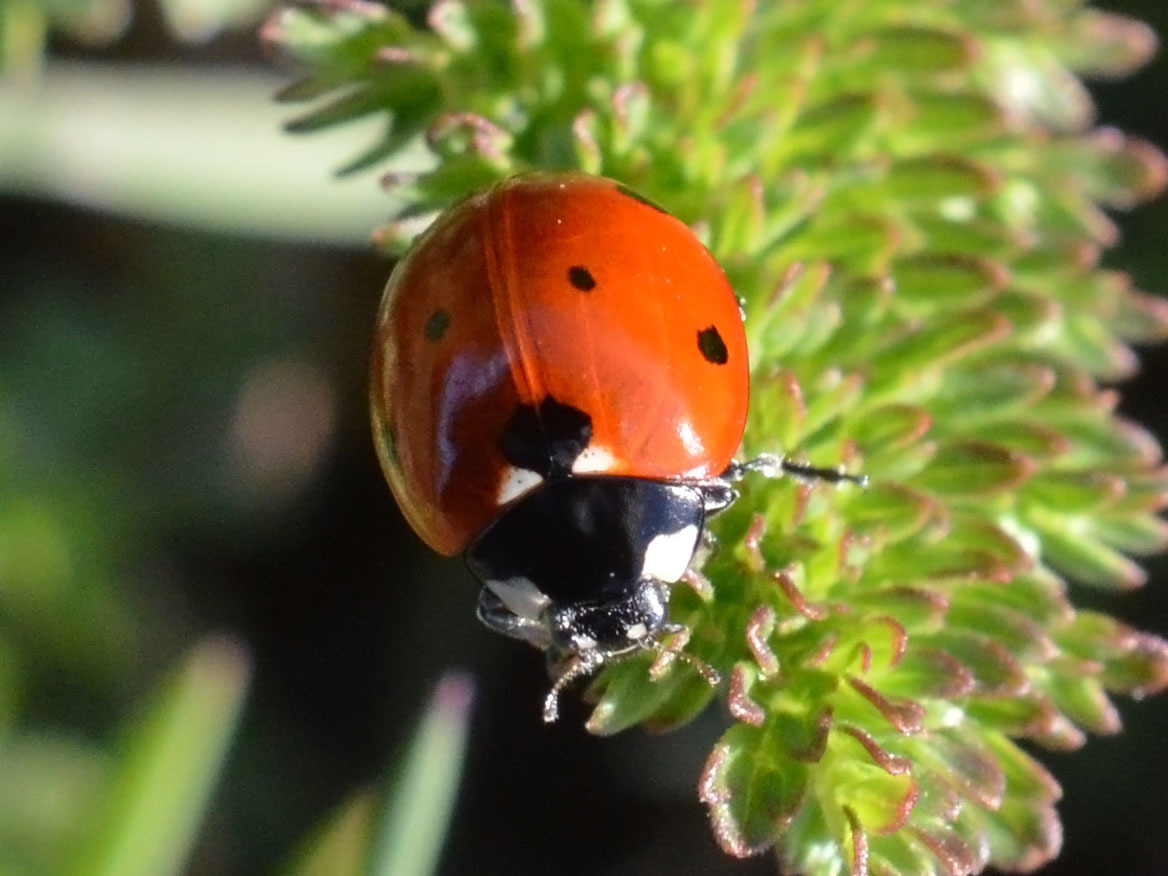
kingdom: Animalia
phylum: Arthropoda
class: Insecta
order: Coleoptera
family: Coccinellidae
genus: Coccinella
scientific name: Coccinella septempunctata
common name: Sevenspotted lady beetle
